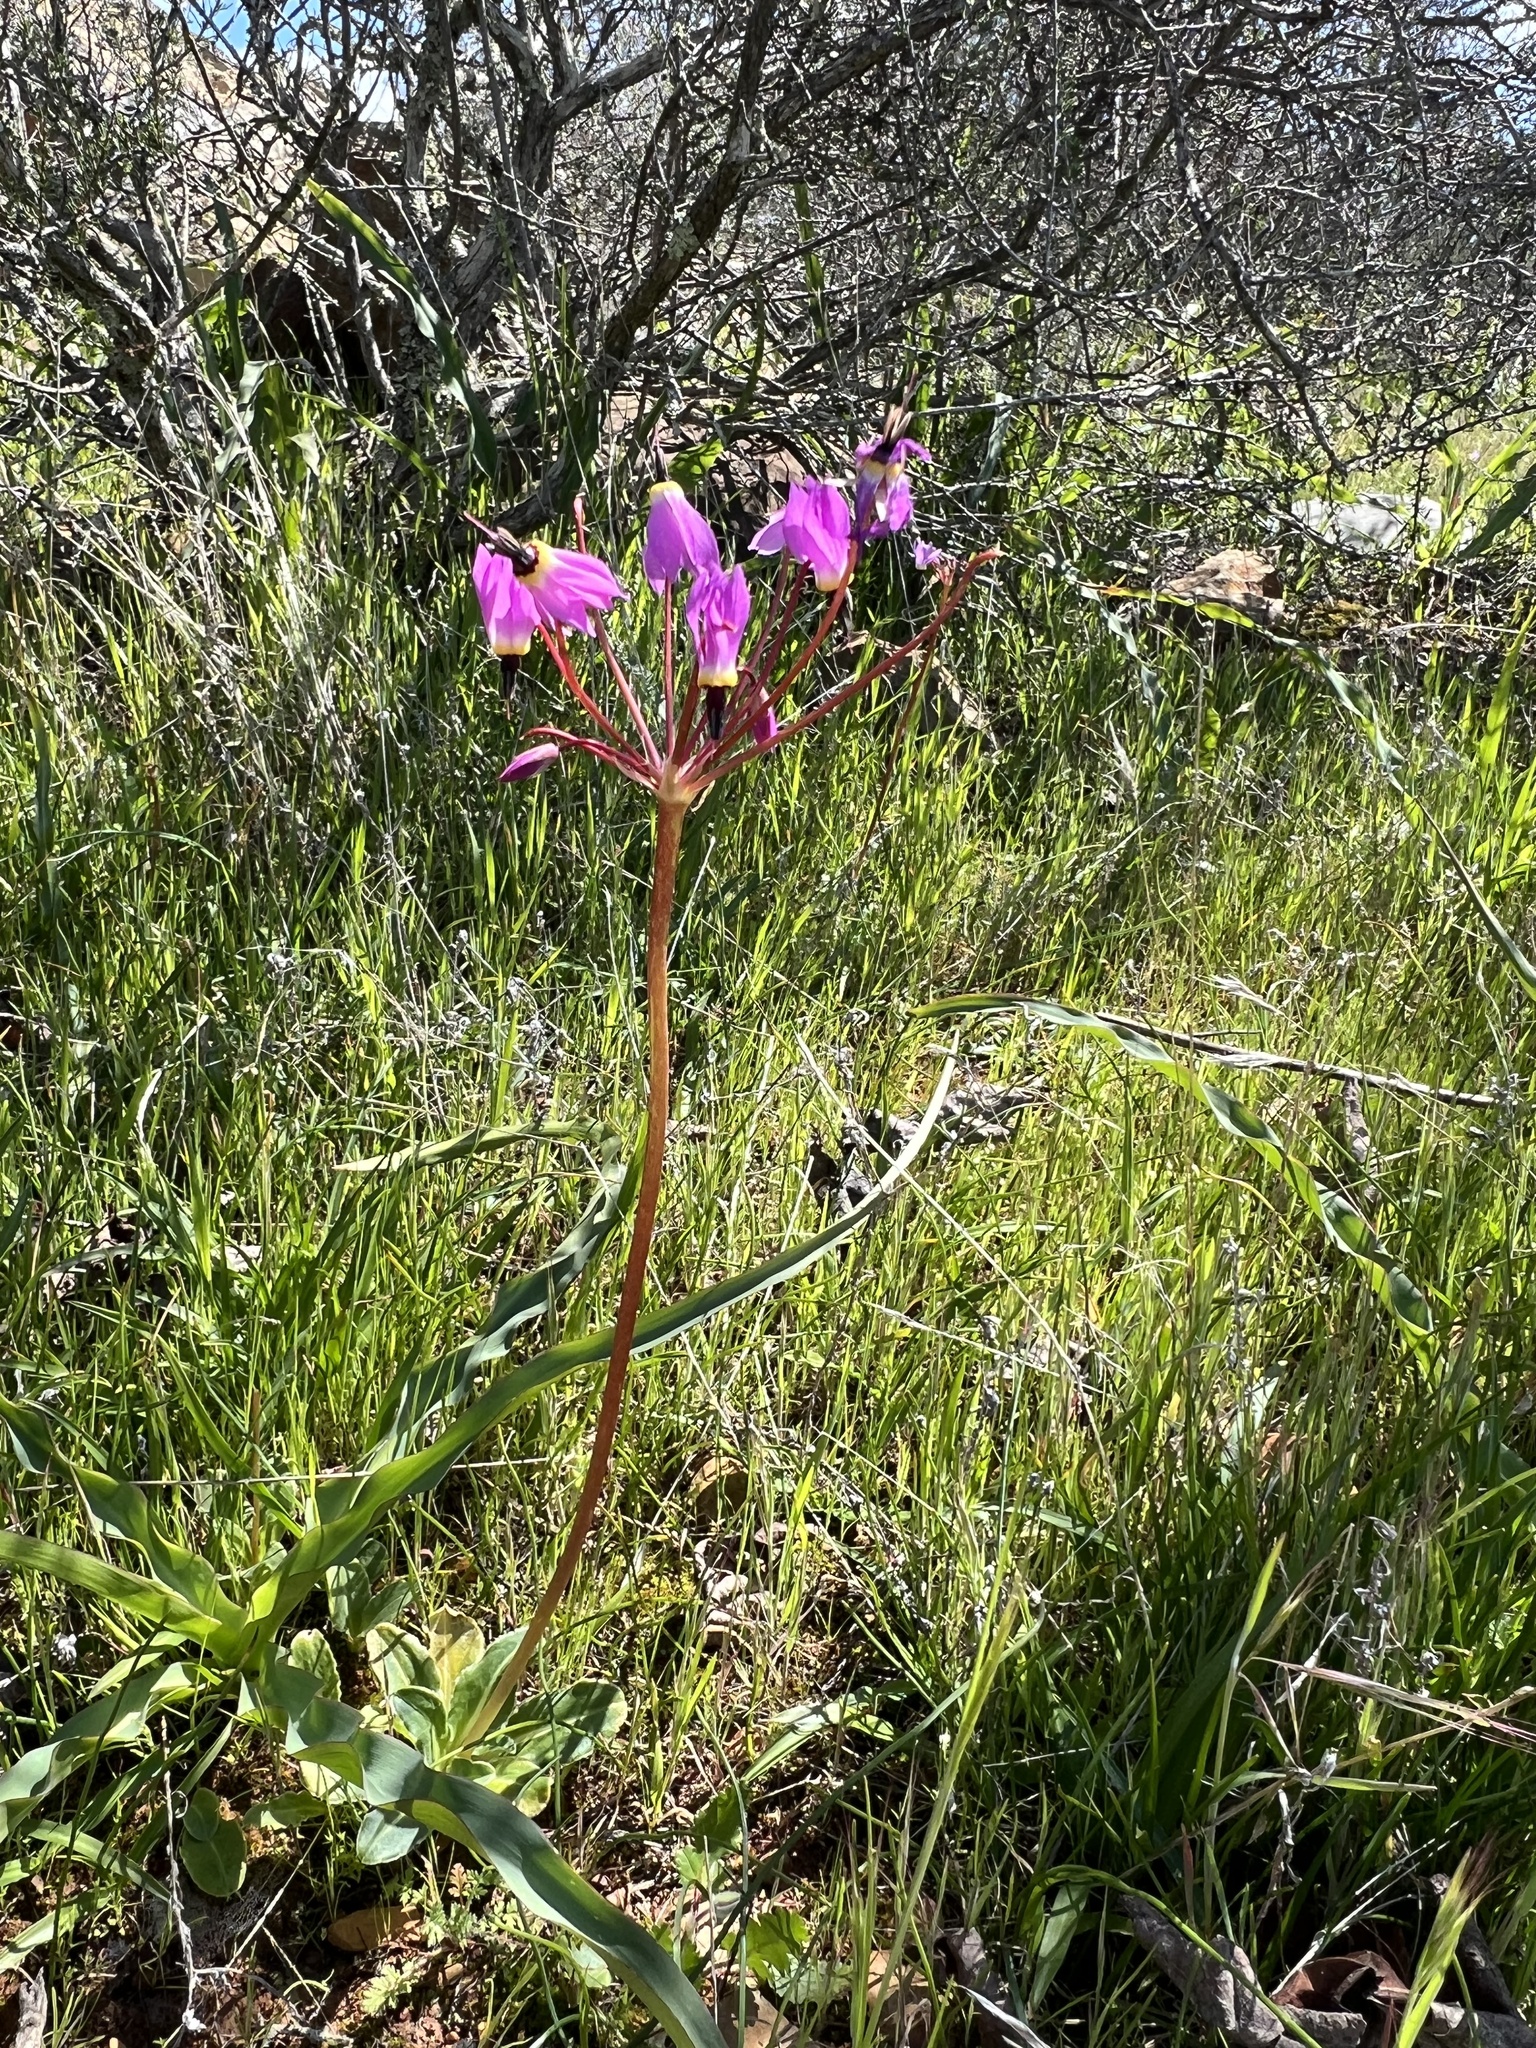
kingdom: Plantae
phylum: Tracheophyta
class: Magnoliopsida
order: Ericales
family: Primulaceae
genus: Dodecatheon
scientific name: Dodecatheon hendersonii
